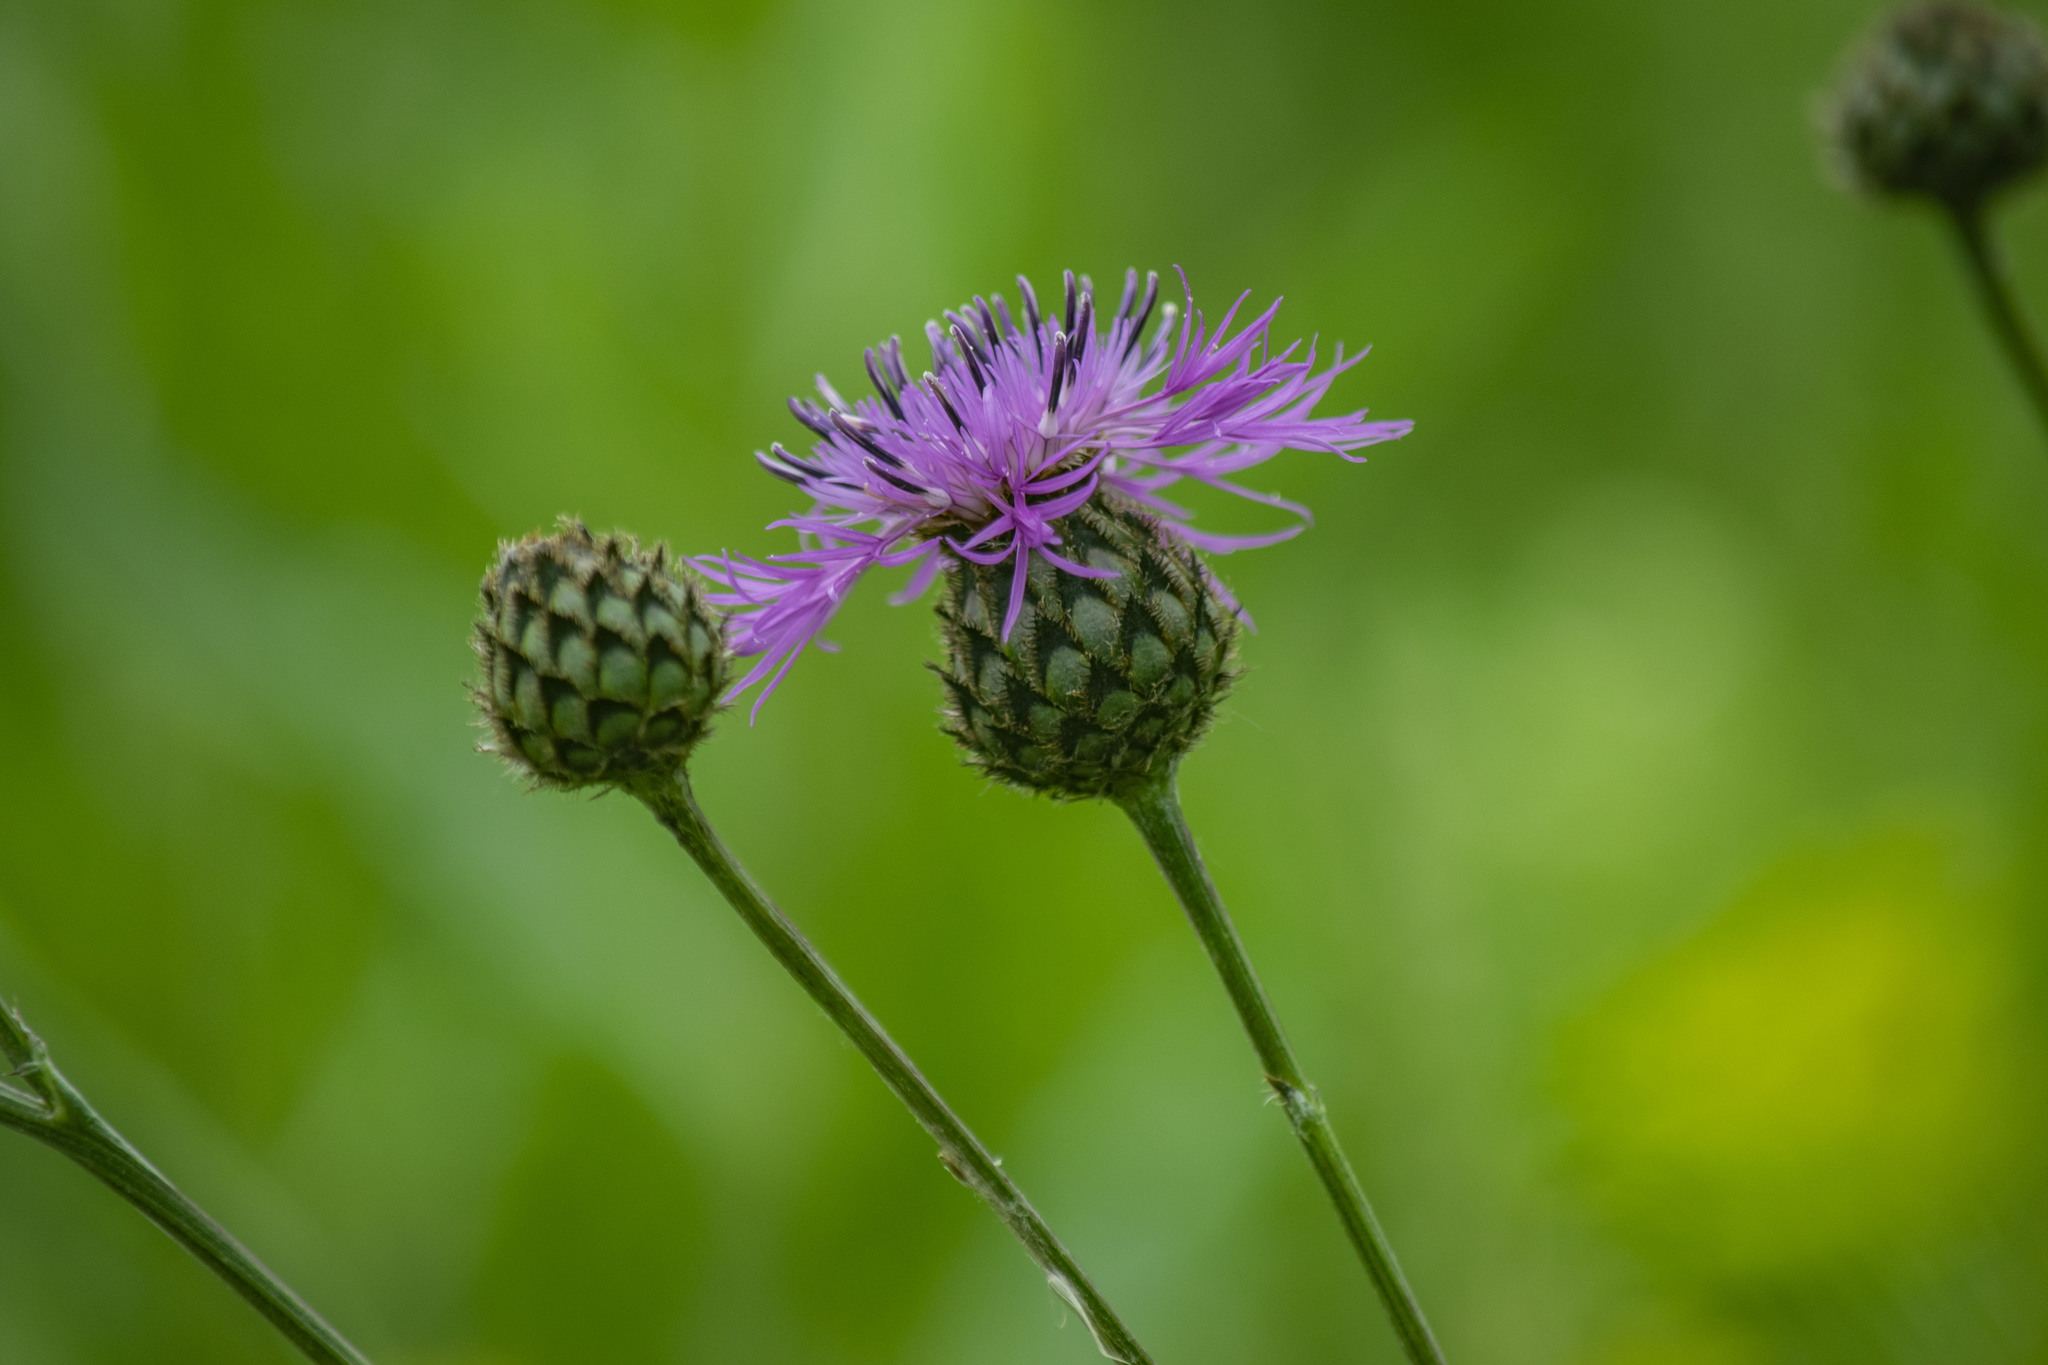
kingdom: Plantae
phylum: Tracheophyta
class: Magnoliopsida
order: Asterales
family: Asteraceae
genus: Centaurea
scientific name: Centaurea scabiosa
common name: Greater knapweed
